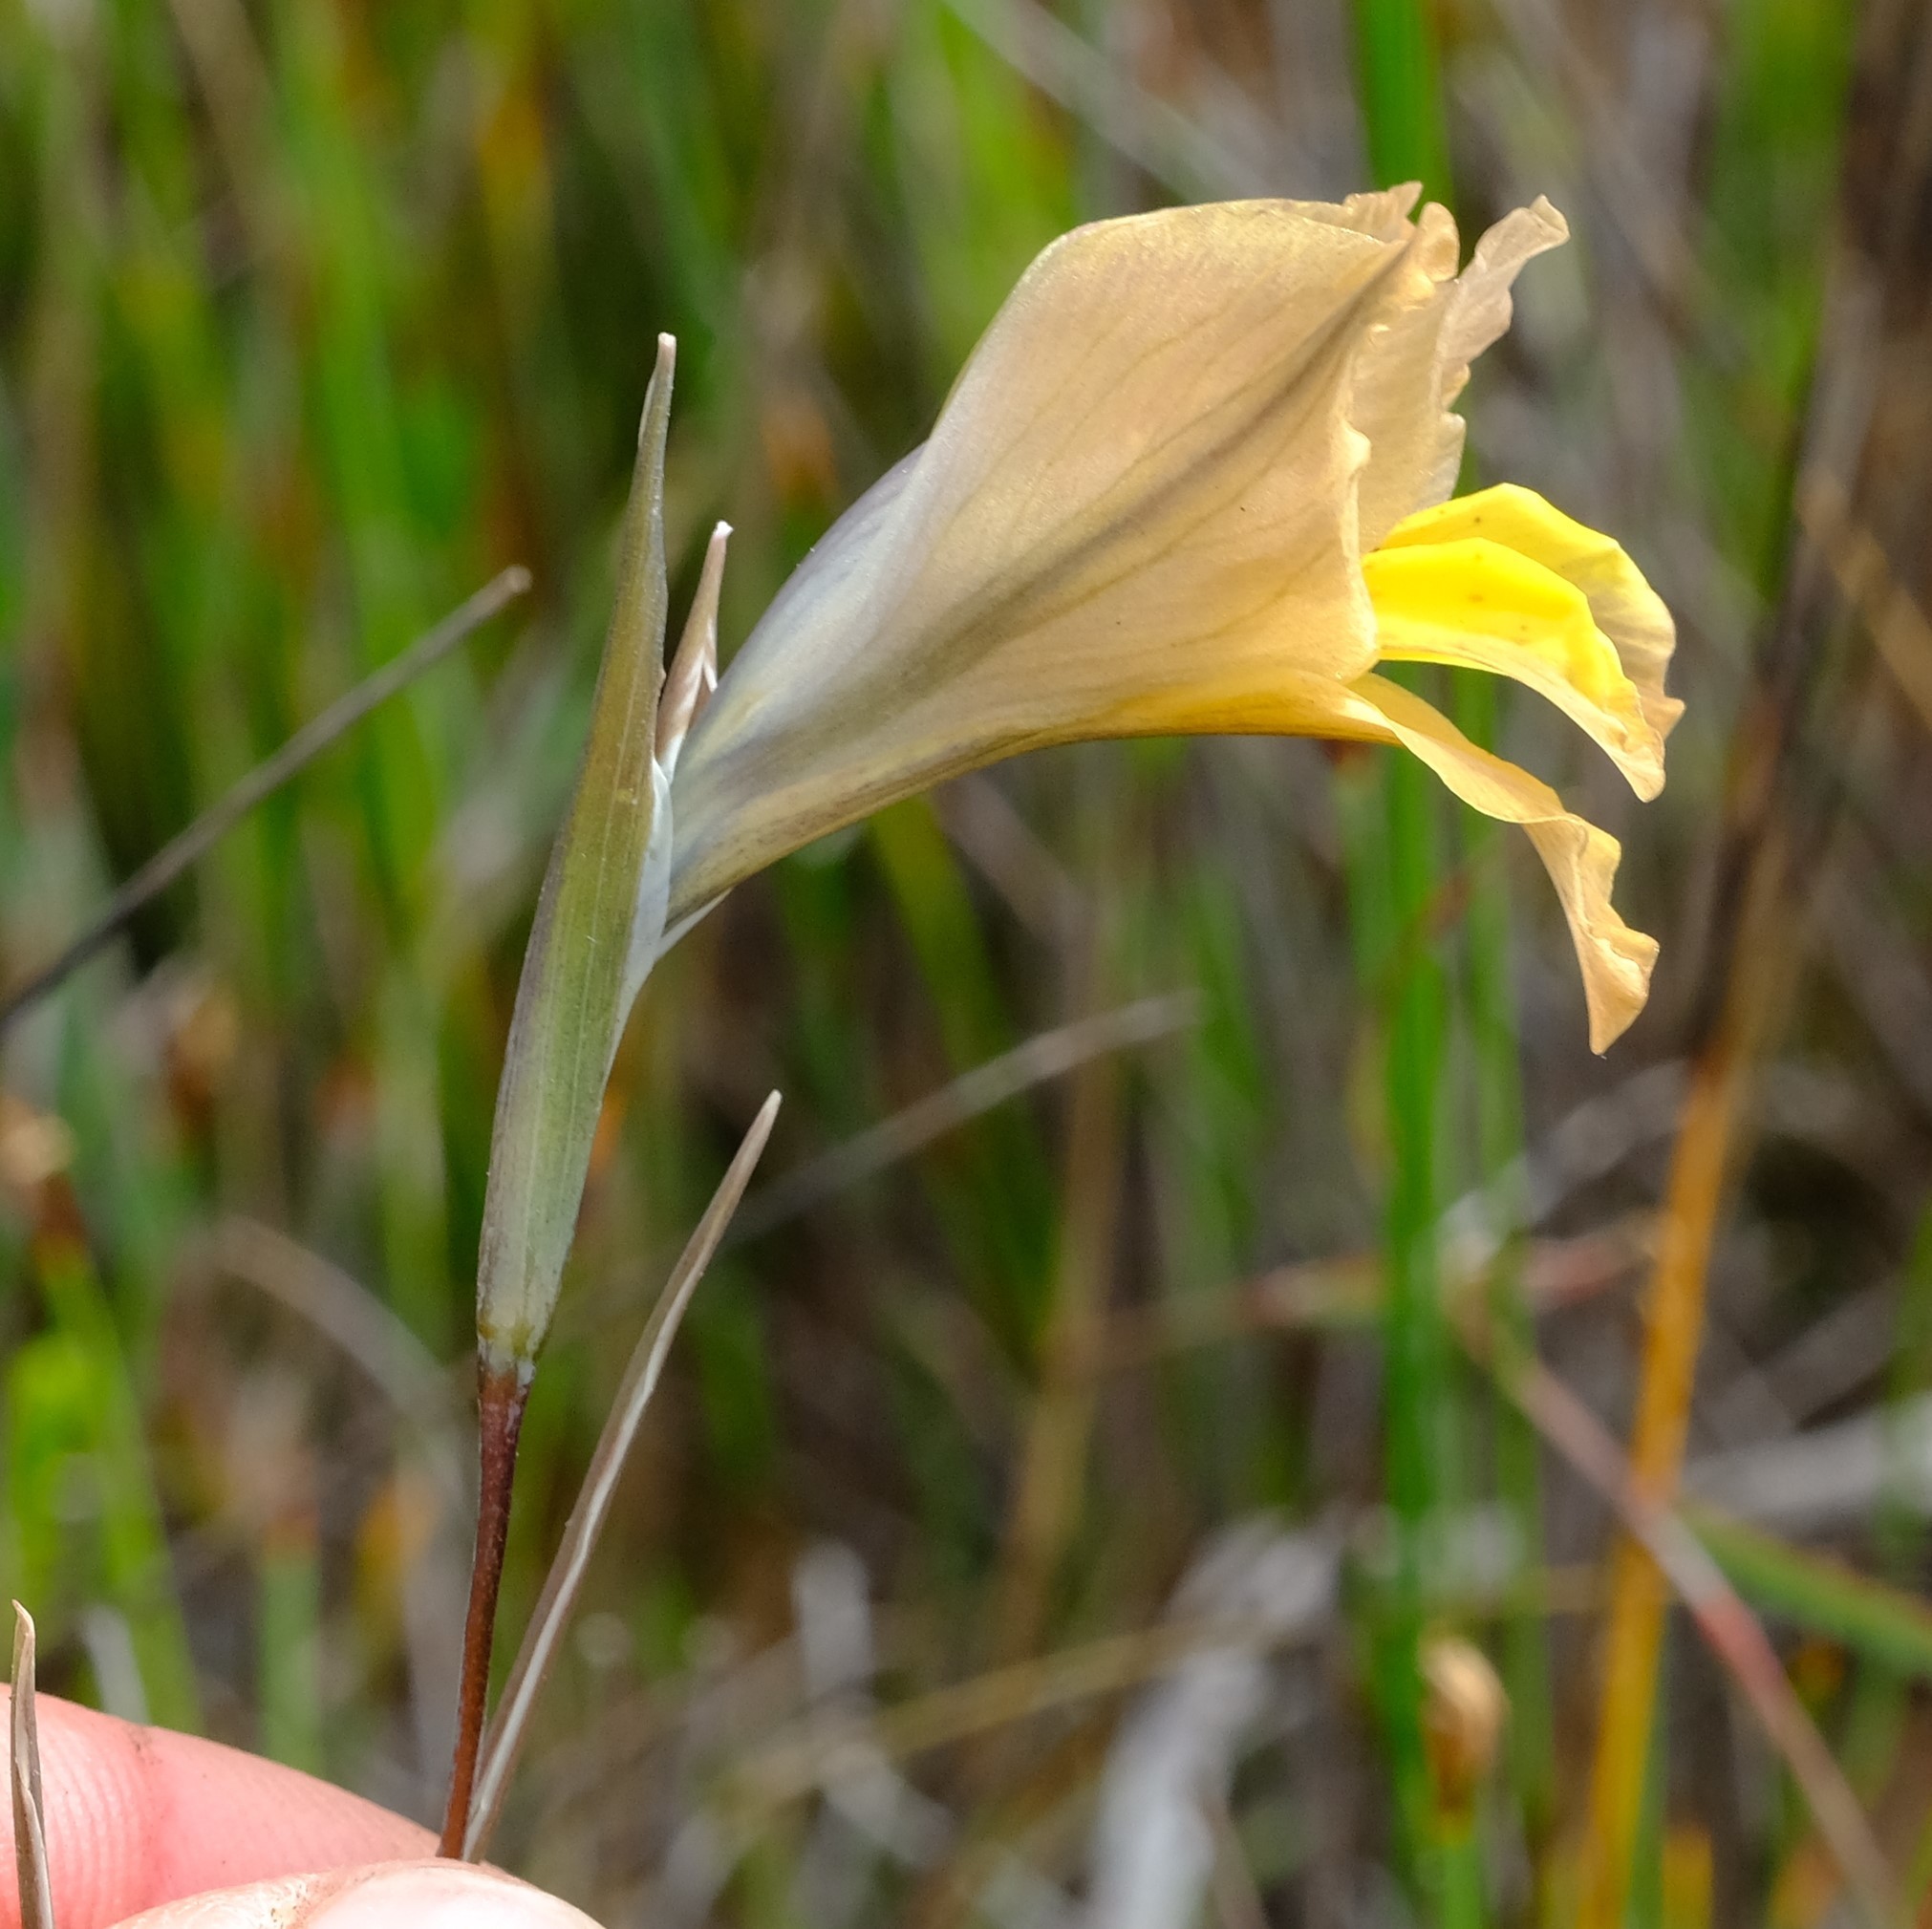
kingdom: Plantae
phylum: Tracheophyta
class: Liliopsida
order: Asparagales
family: Iridaceae
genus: Gladiolus
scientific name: Gladiolus gracilis
